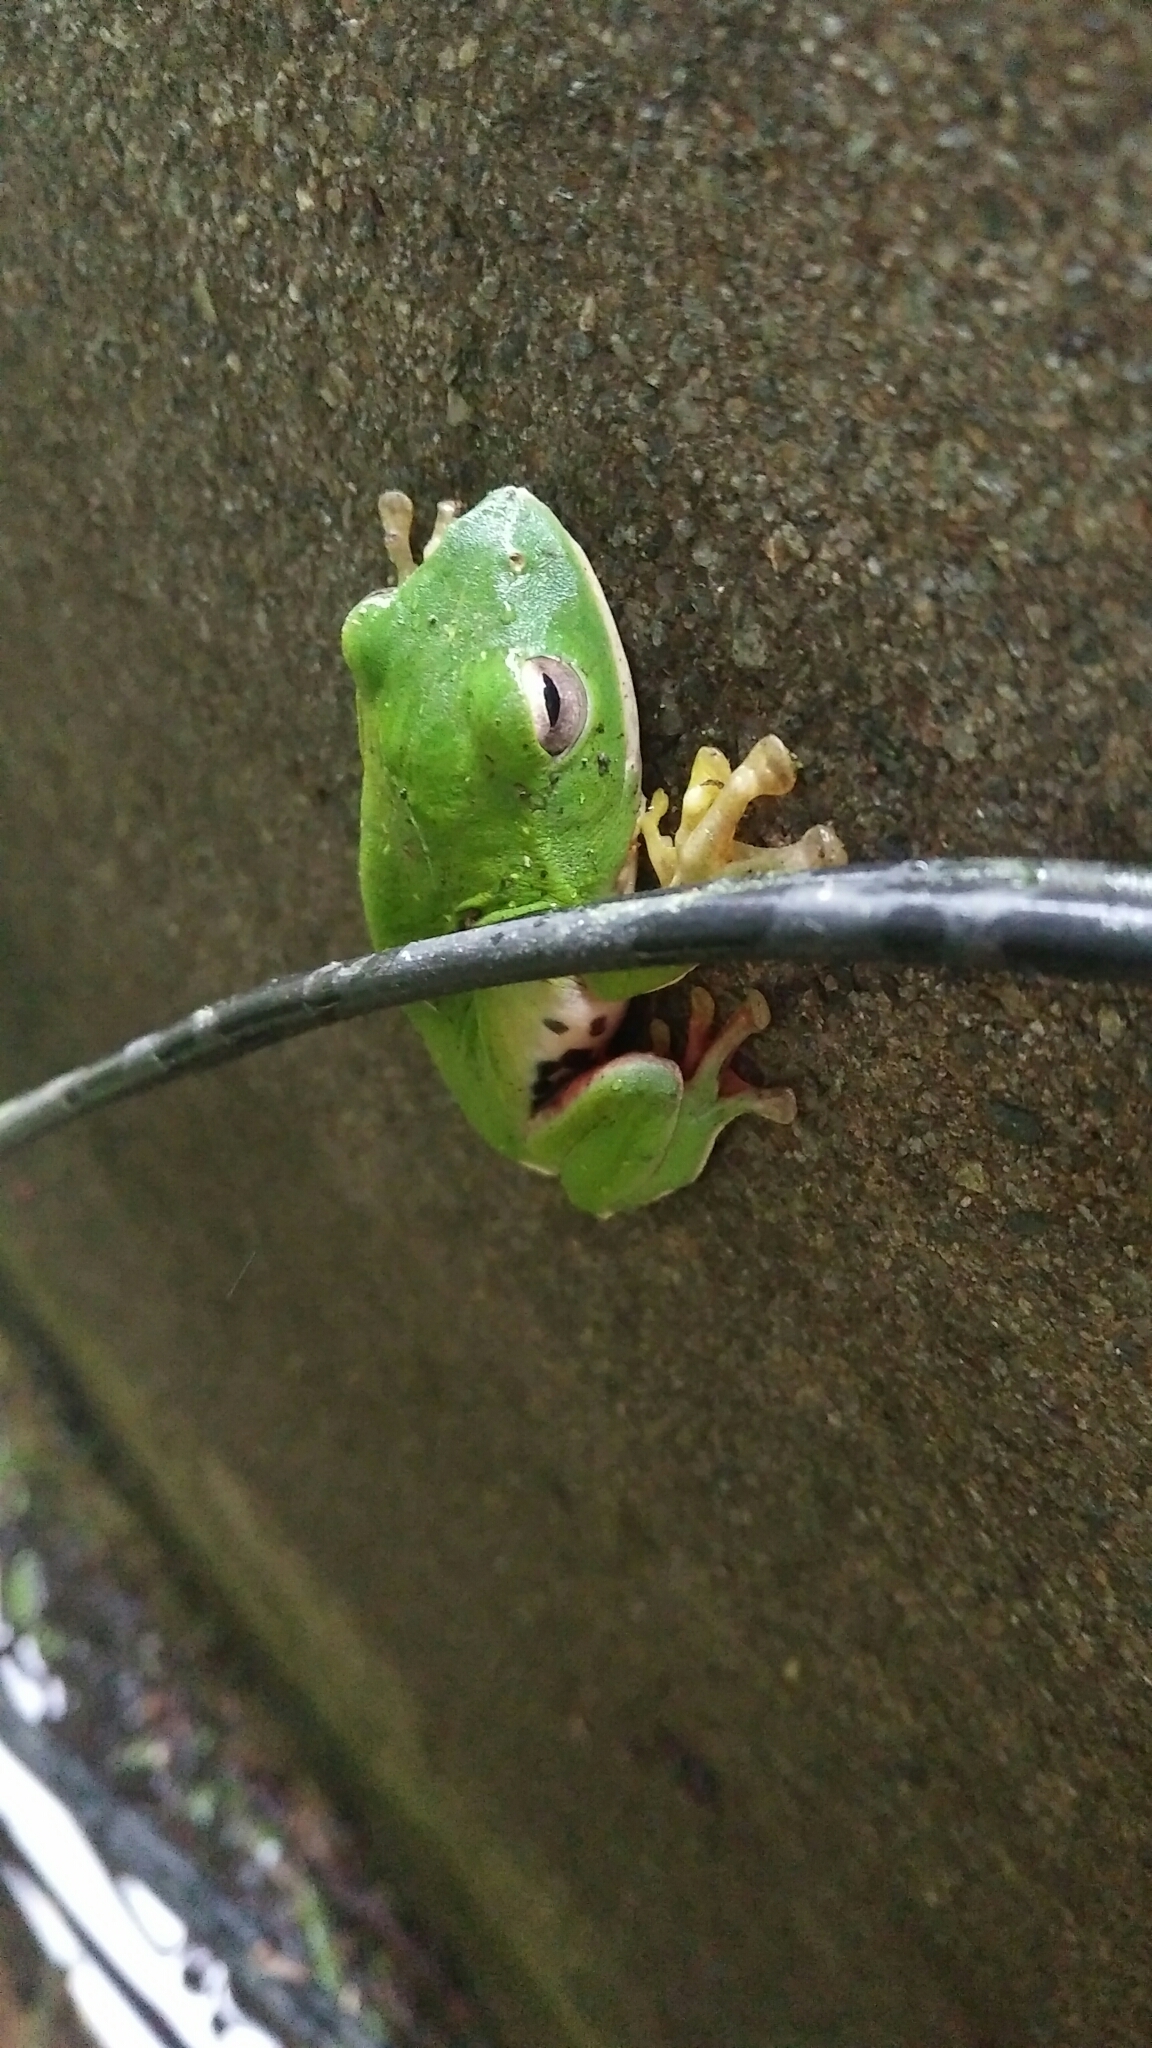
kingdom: Animalia
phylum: Chordata
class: Amphibia
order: Anura
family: Rhacophoridae
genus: Zhangixalus
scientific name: Zhangixalus moltrechti
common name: Moltrecht's treefrog
